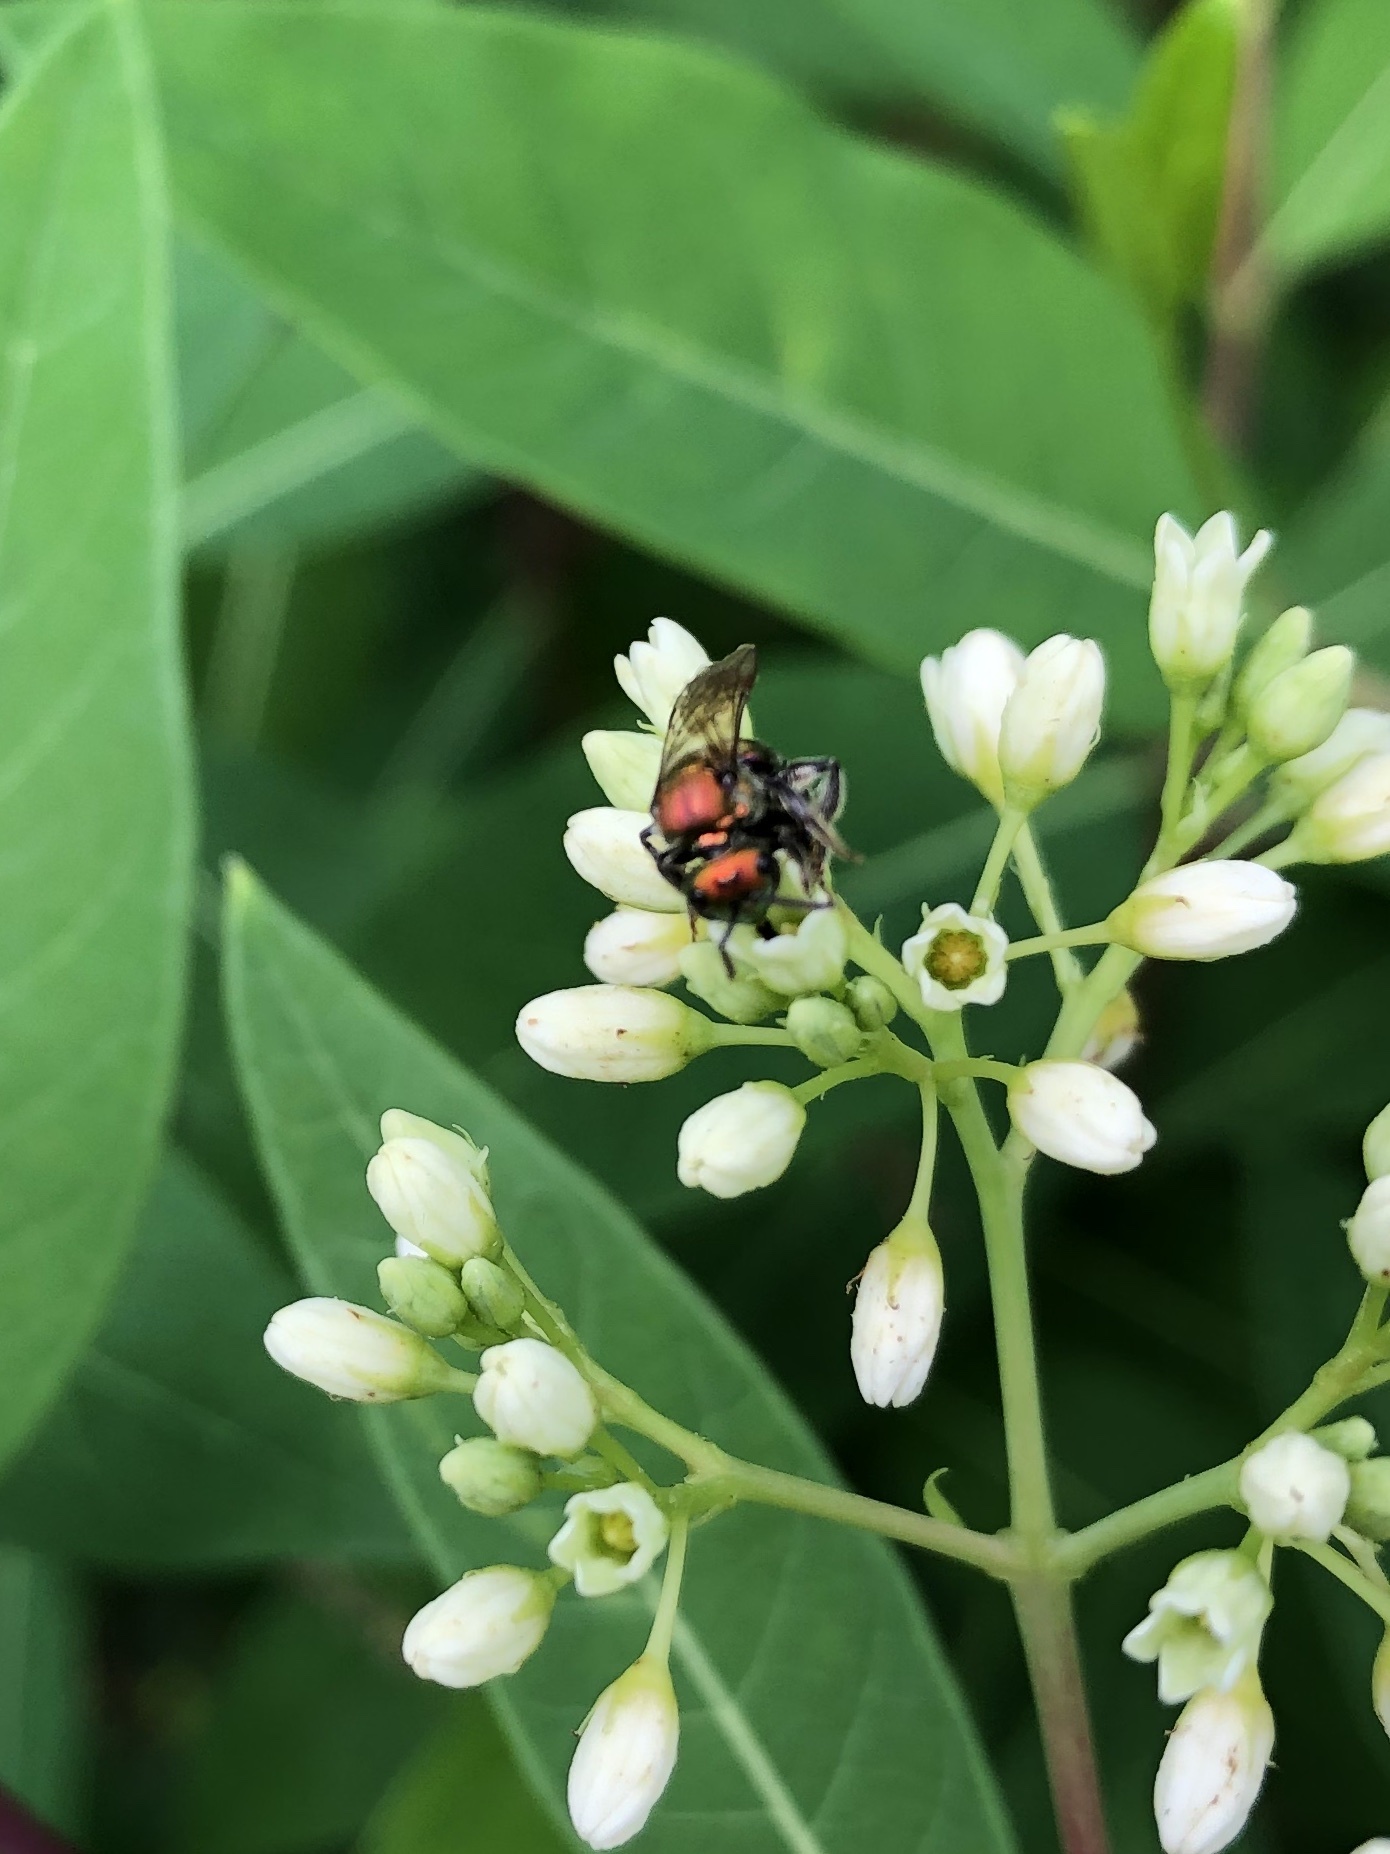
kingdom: Animalia
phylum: Arthropoda
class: Insecta
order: Hymenoptera
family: Halictidae
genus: Augochlora
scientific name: Augochlora pura
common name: Pure green sweat bee
